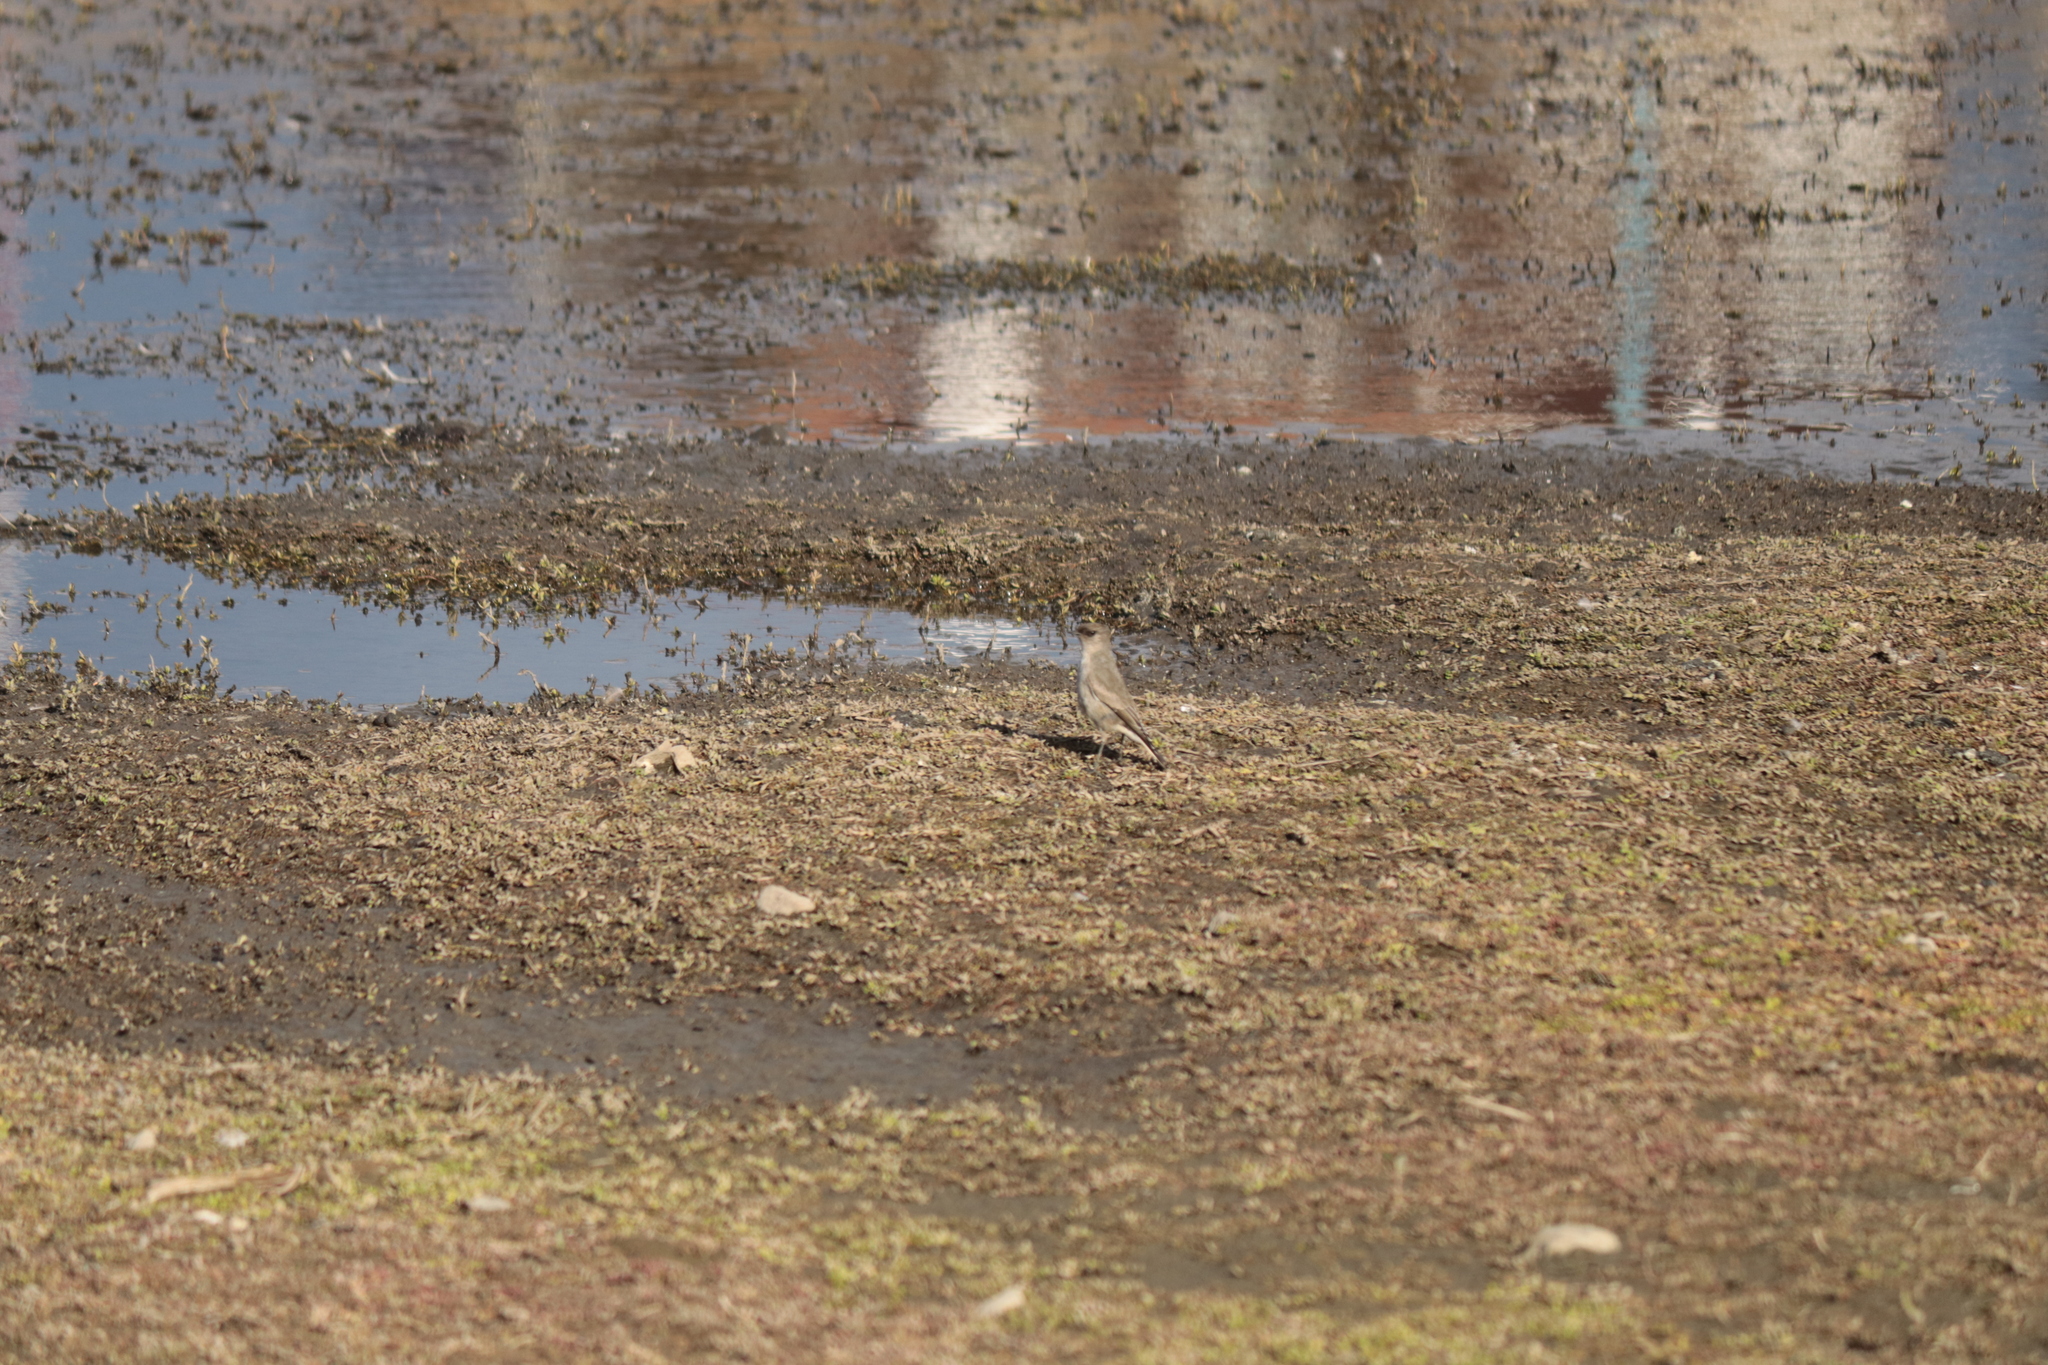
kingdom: Animalia
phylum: Chordata
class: Aves
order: Passeriformes
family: Tyrannidae
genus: Muscisaxicola
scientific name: Muscisaxicola maclovianus
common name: Dark-faced ground tyrant
